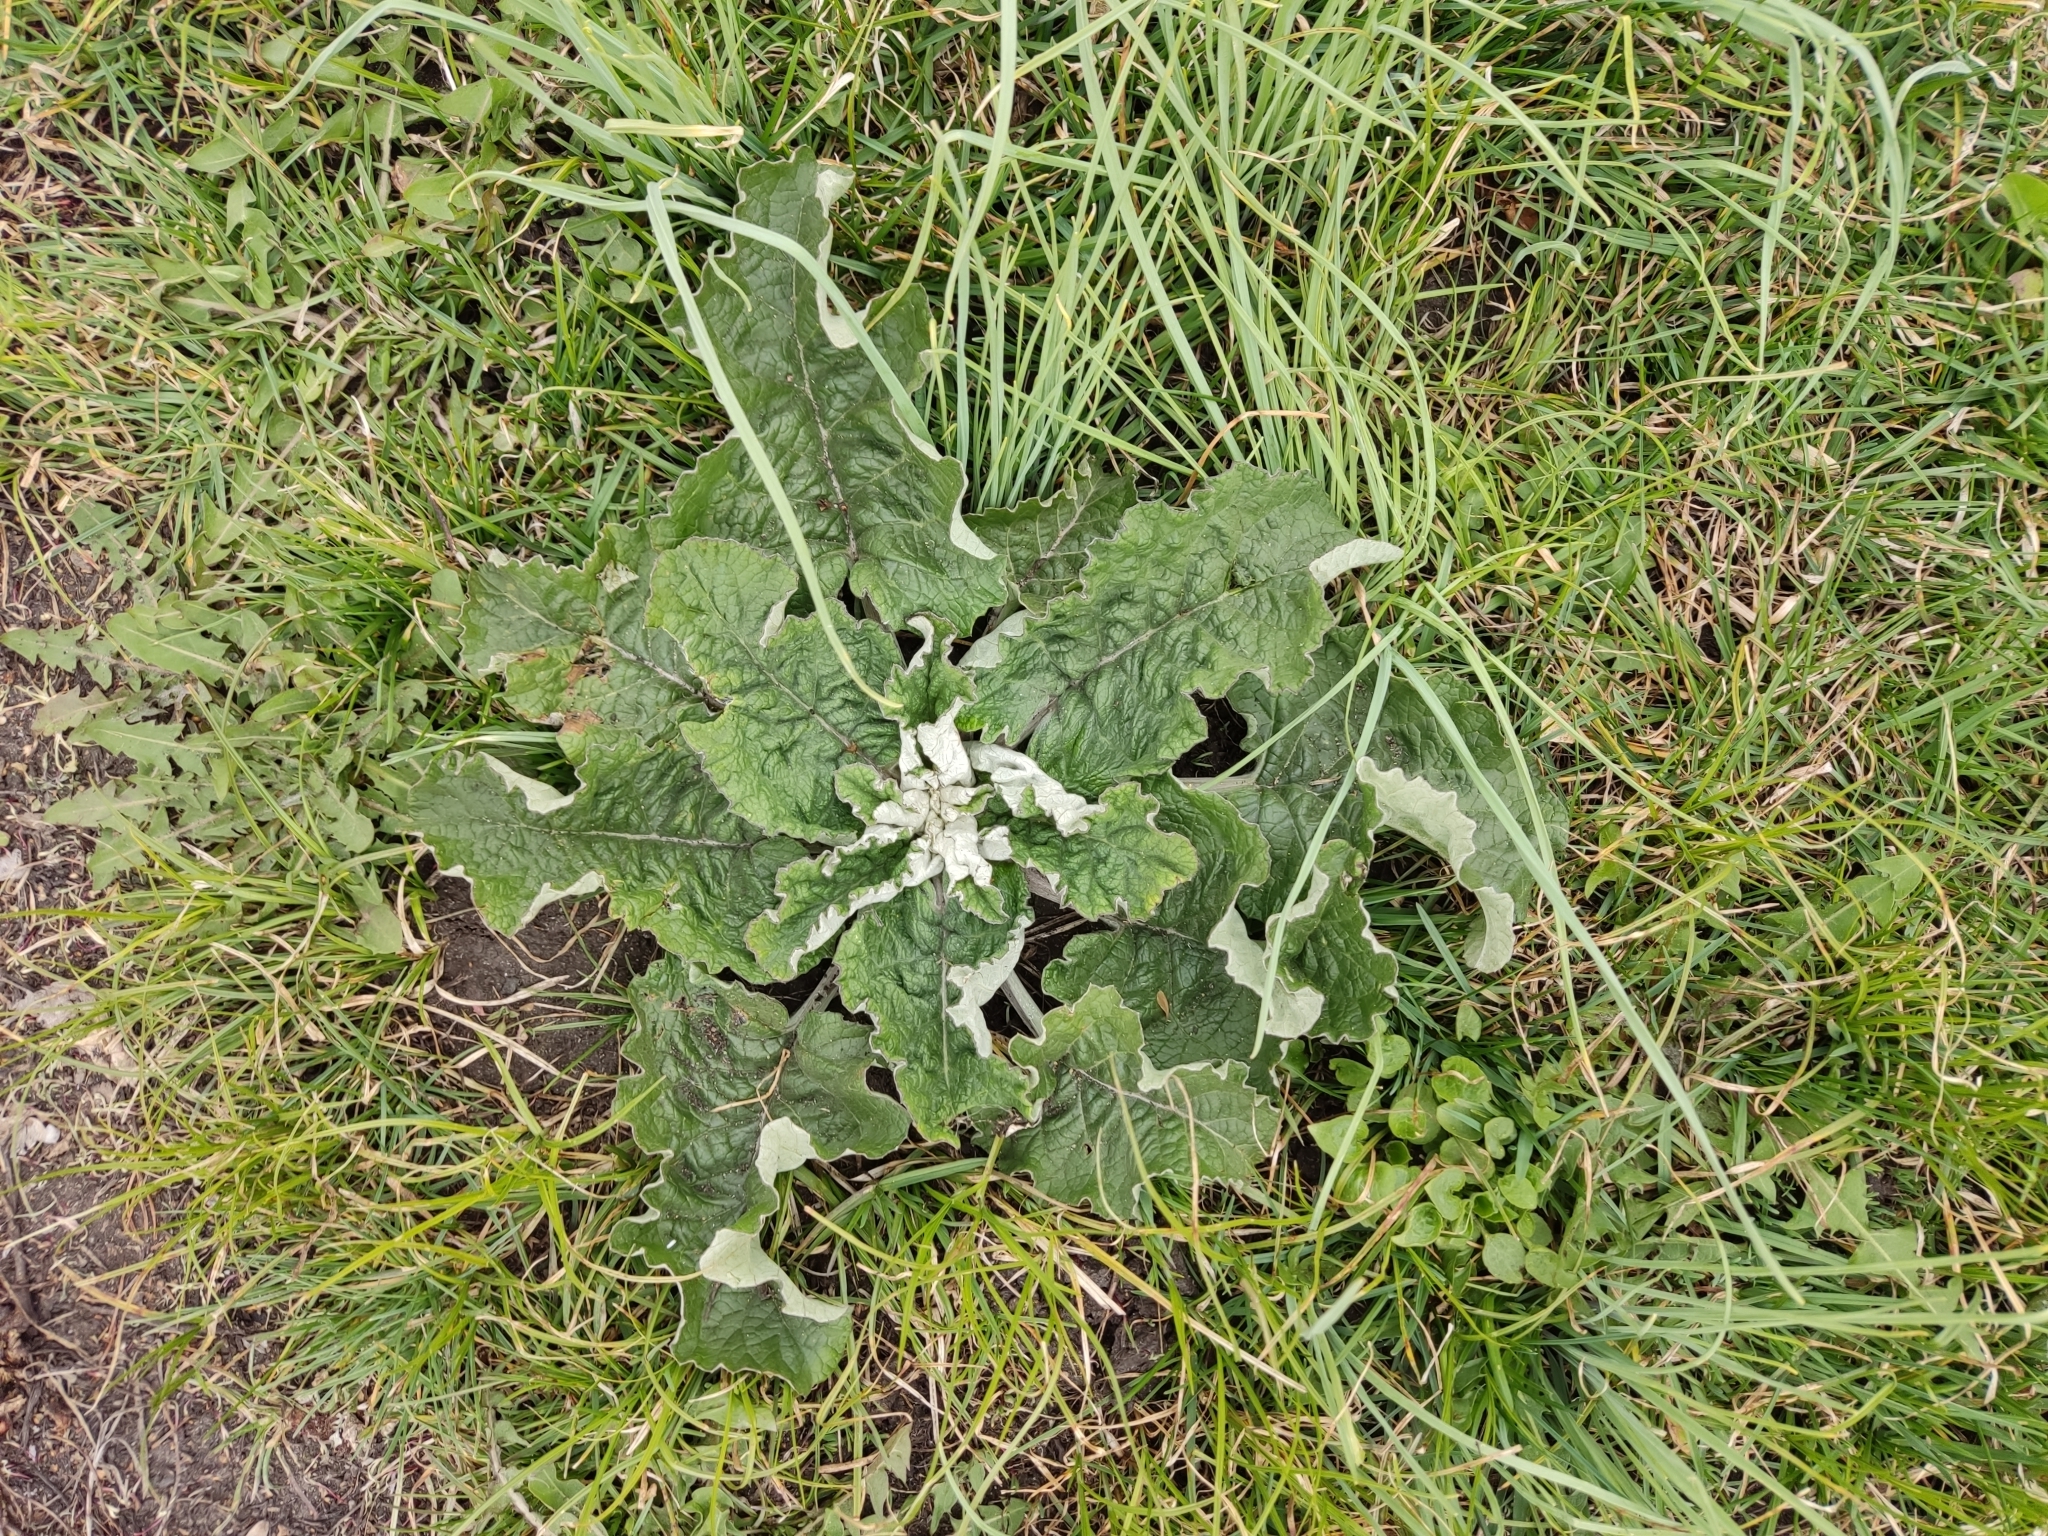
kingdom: Plantae
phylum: Tracheophyta
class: Magnoliopsida
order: Asterales
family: Asteraceae
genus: Arctium
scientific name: Arctium tomentosum
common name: Woolly burdock
